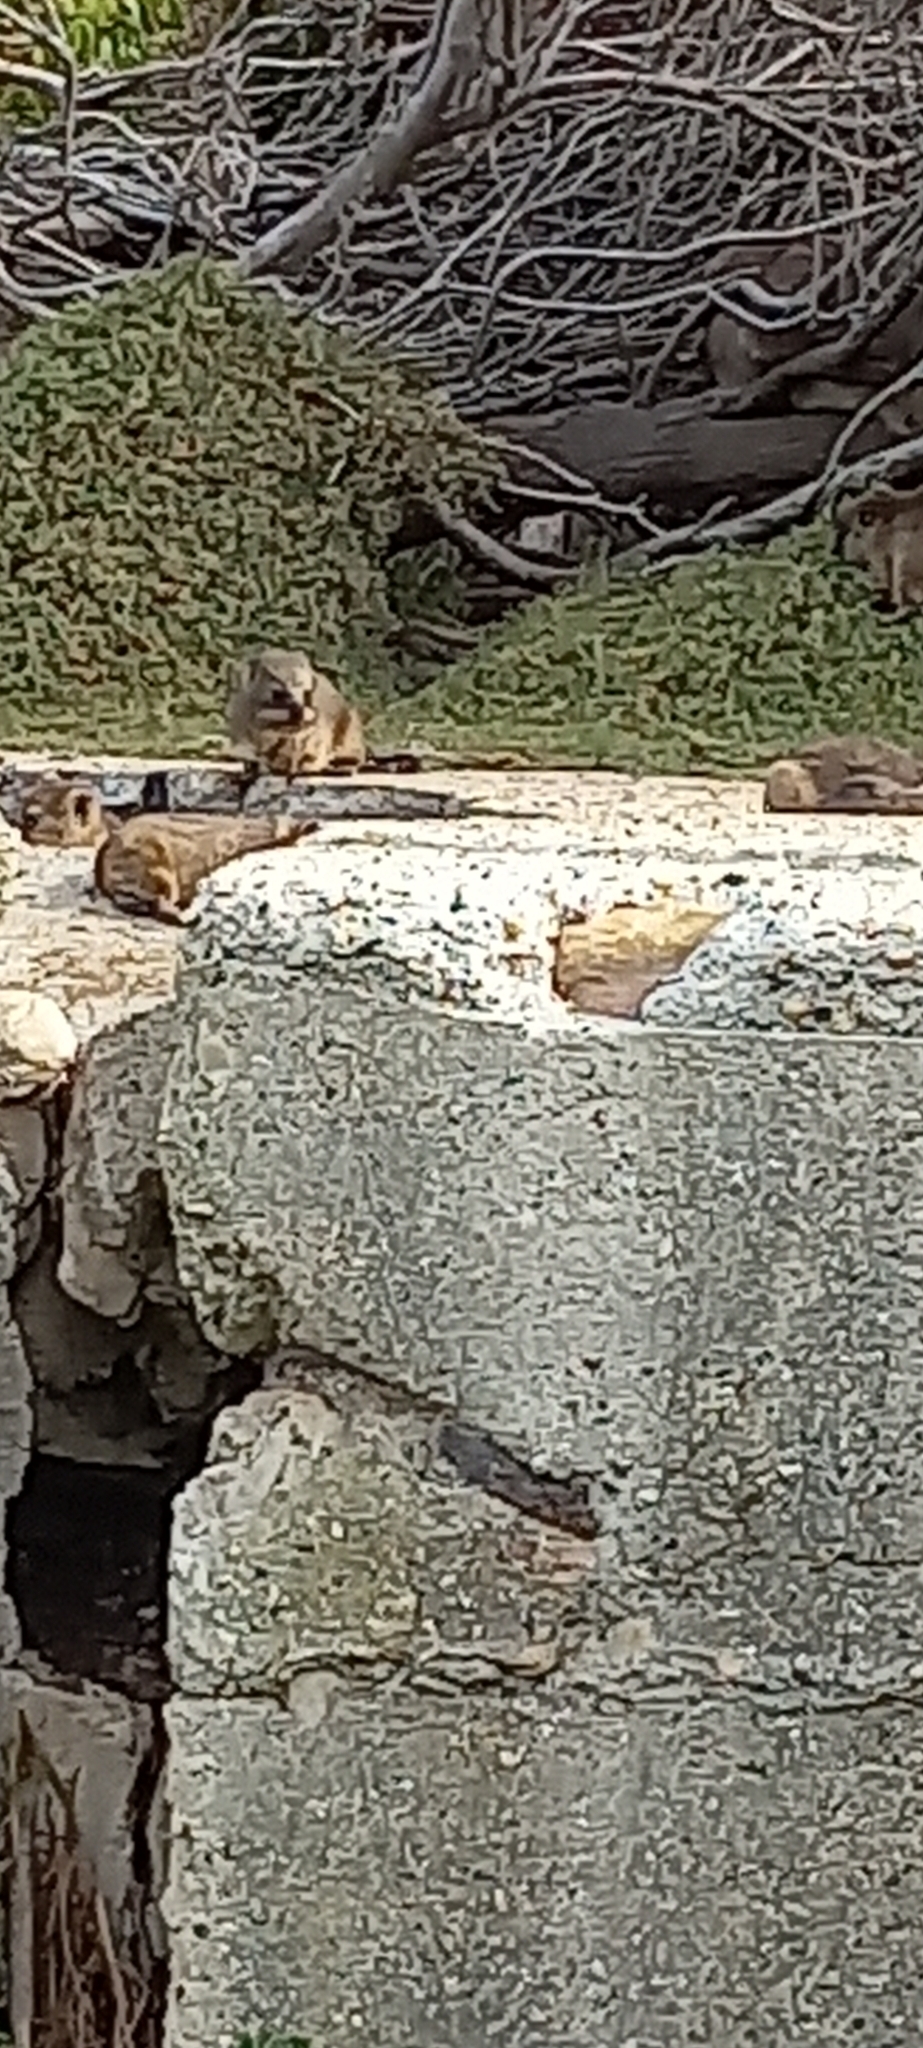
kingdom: Animalia
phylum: Chordata
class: Mammalia
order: Hyracoidea
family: Procaviidae
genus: Procavia
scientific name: Procavia capensis
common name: Rock hyrax
